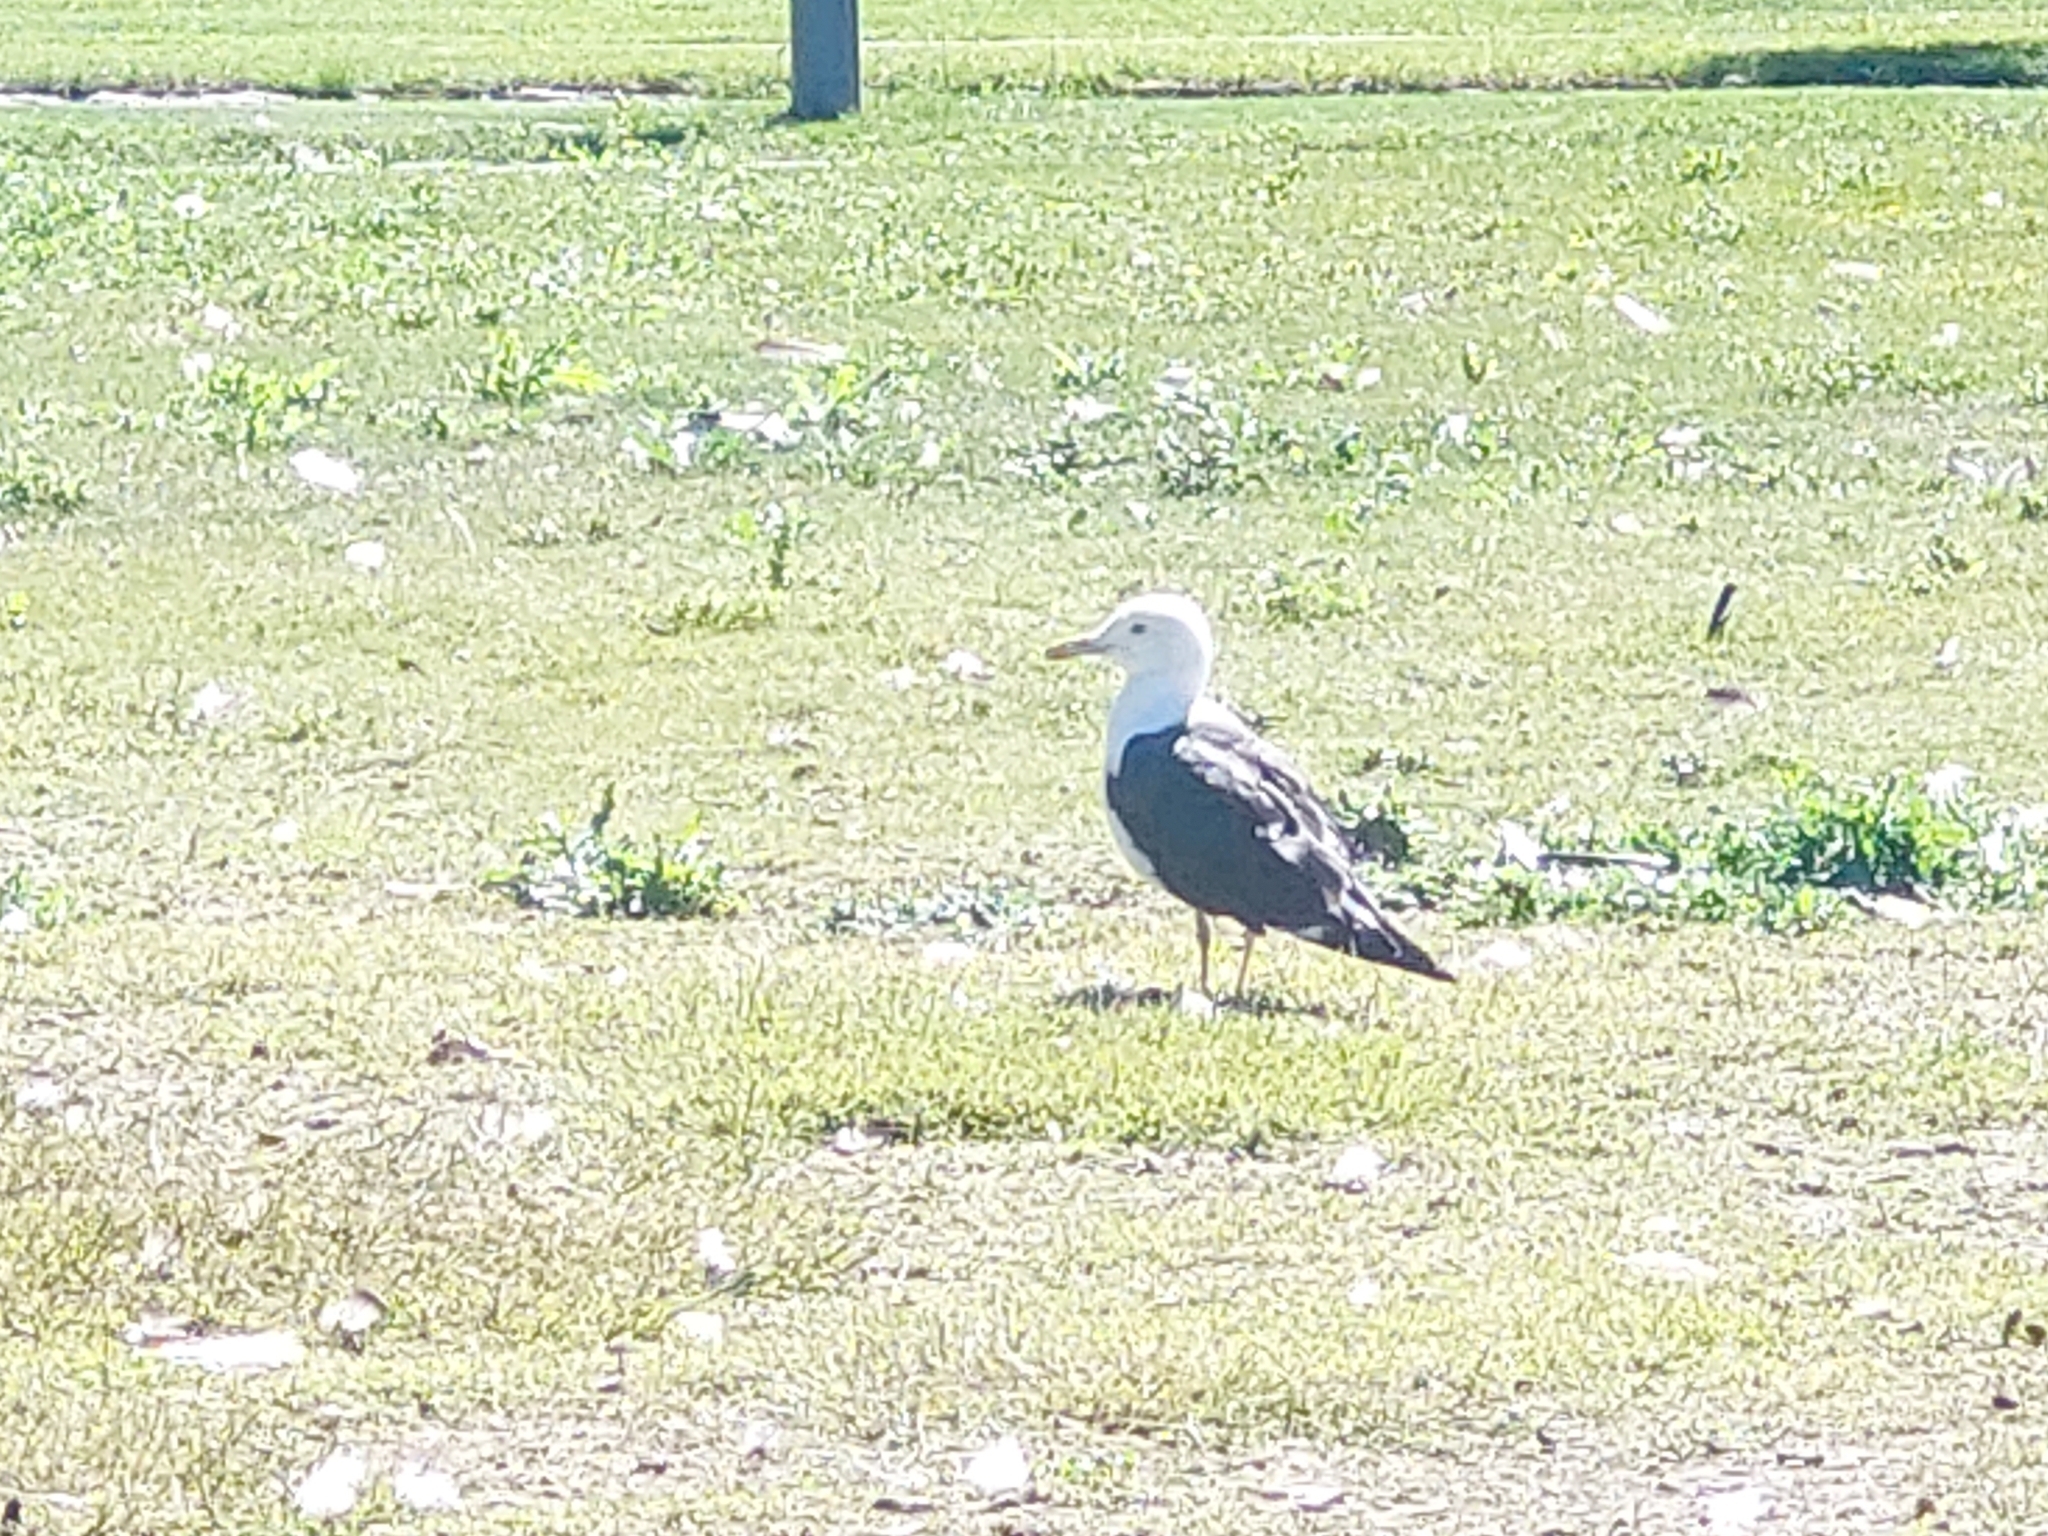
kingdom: Animalia
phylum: Chordata
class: Aves
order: Charadriiformes
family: Laridae
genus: Larus
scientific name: Larus fuscus
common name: Lesser black-backed gull
